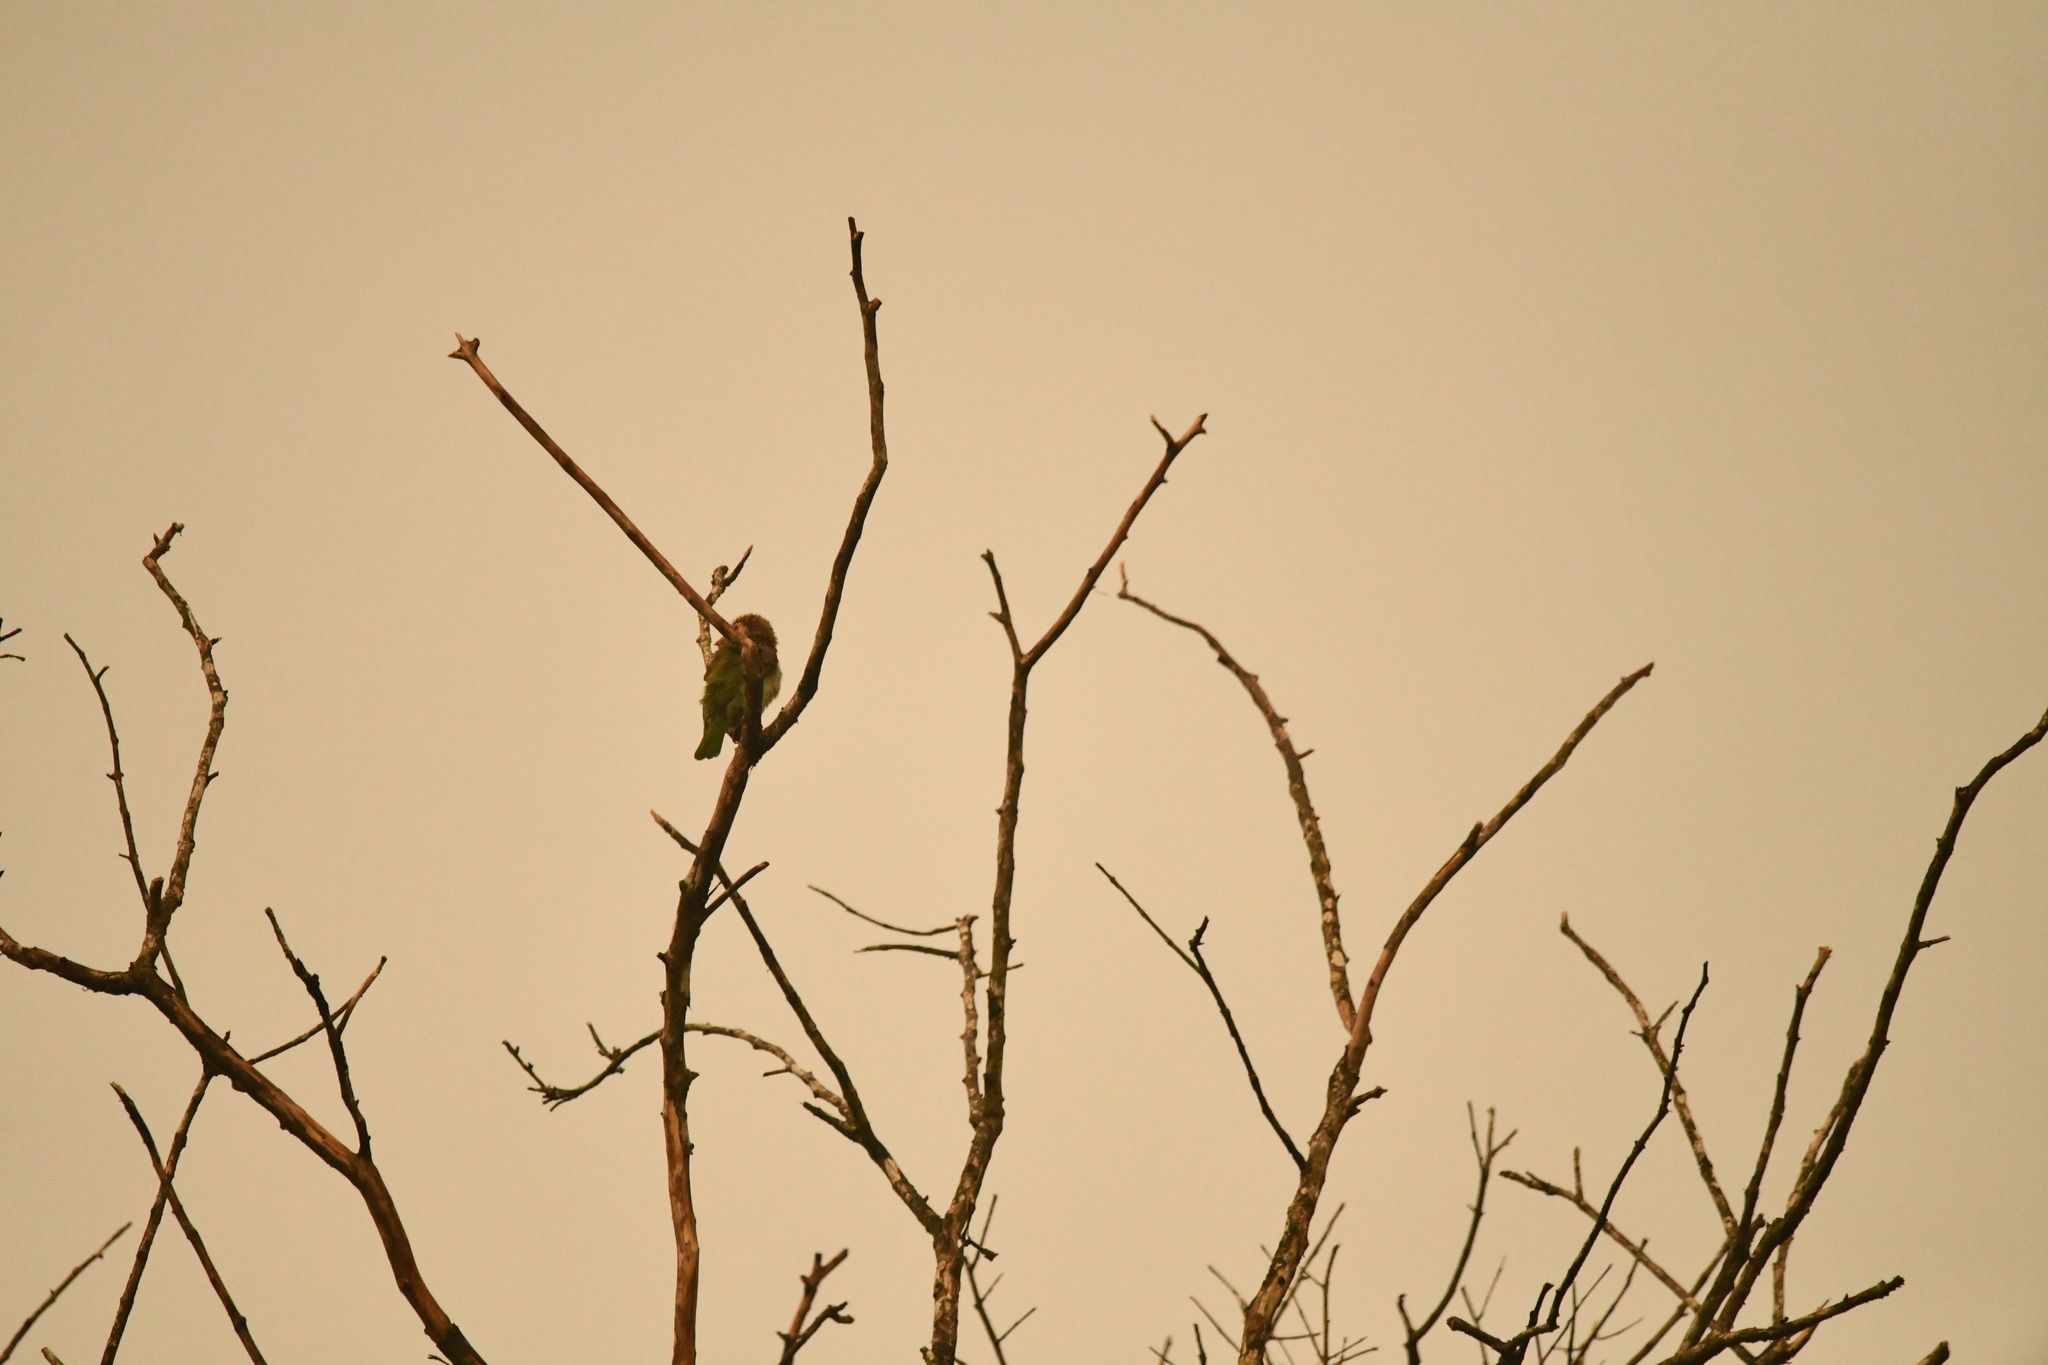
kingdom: Animalia
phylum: Chordata
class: Aves
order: Piciformes
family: Megalaimidae
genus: Psilopogon
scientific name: Psilopogon zeylanicus
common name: Brown-headed barbet
